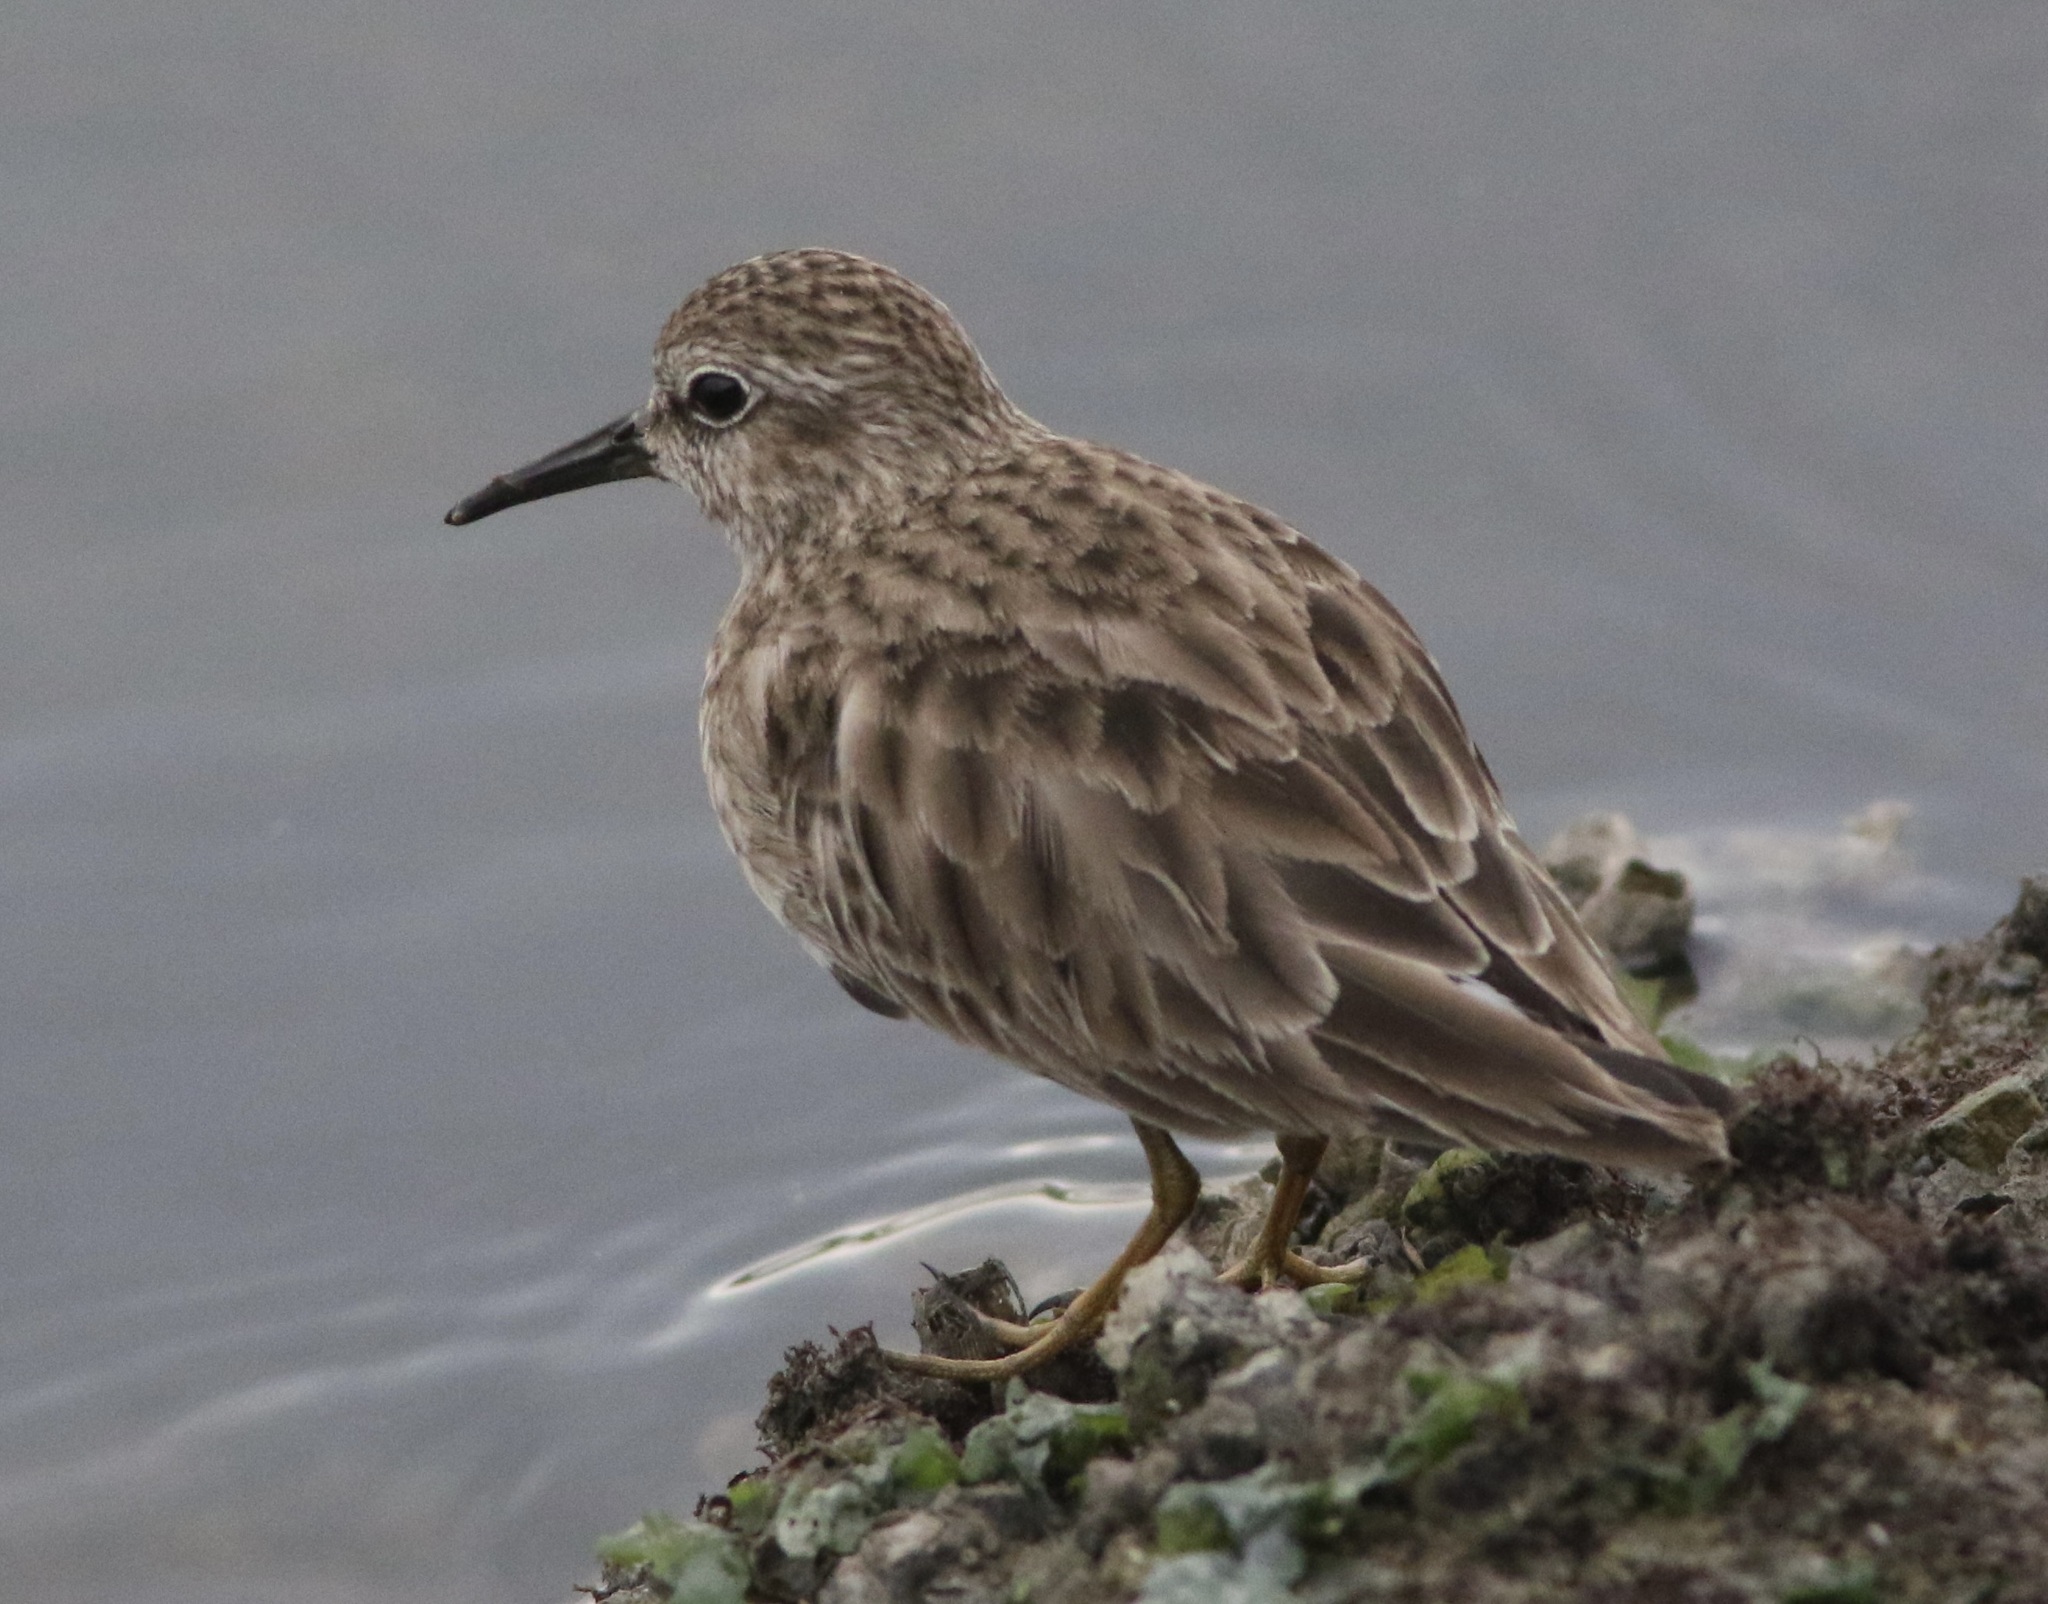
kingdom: Animalia
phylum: Chordata
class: Aves
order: Charadriiformes
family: Scolopacidae
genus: Calidris
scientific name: Calidris minutilla
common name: Least sandpiper
